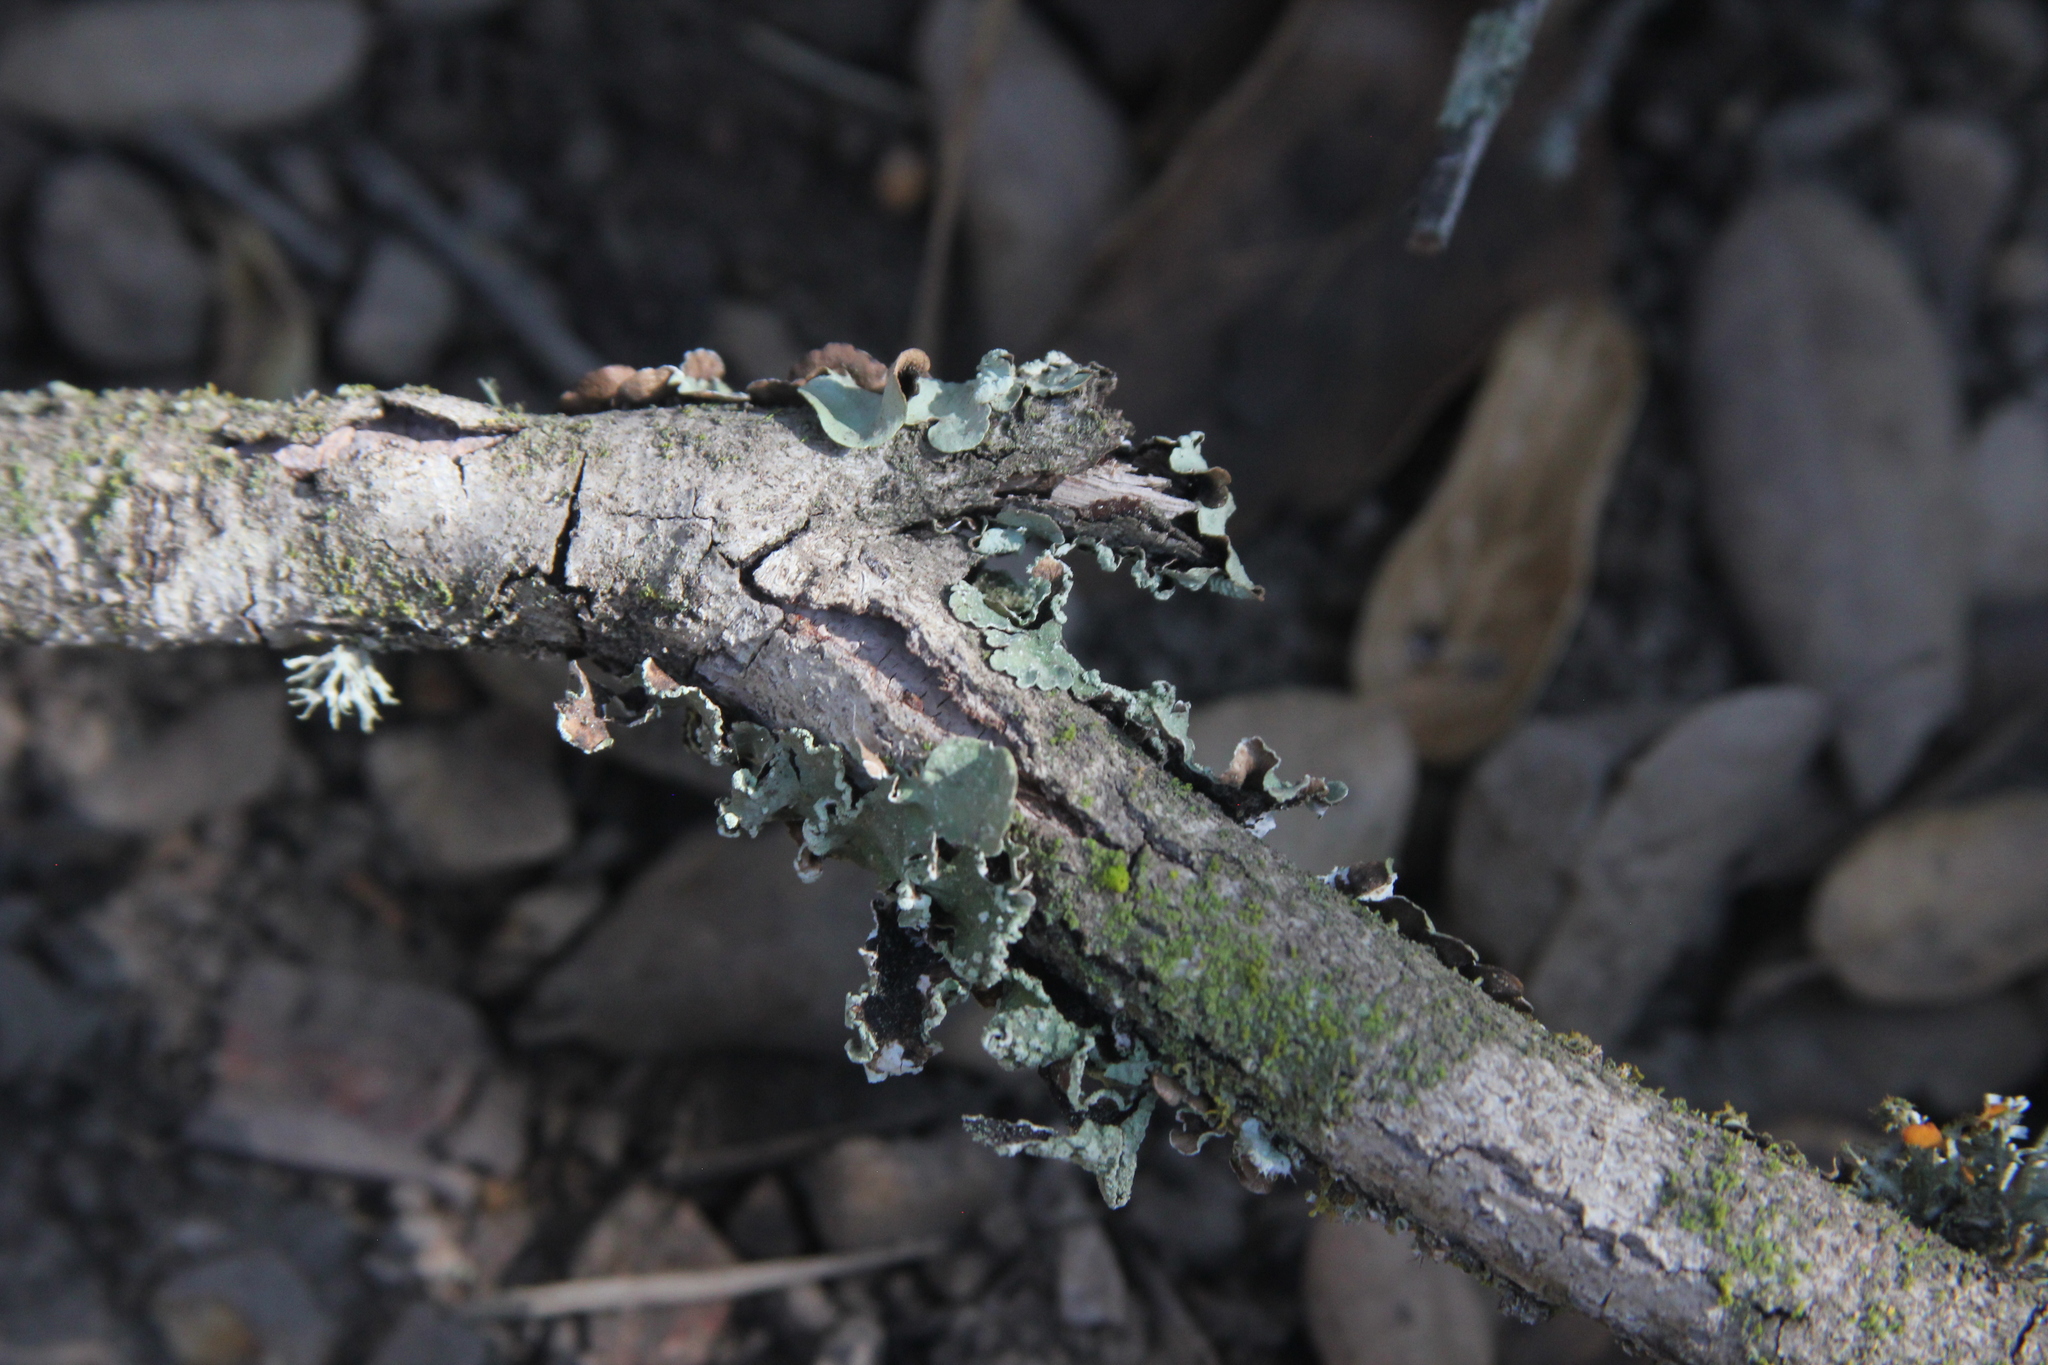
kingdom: Fungi
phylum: Ascomycota
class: Lecanoromycetes
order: Lecanorales
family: Parmeliaceae
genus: Flavopunctelia
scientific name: Flavopunctelia flaventior
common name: Speckled greenshield
